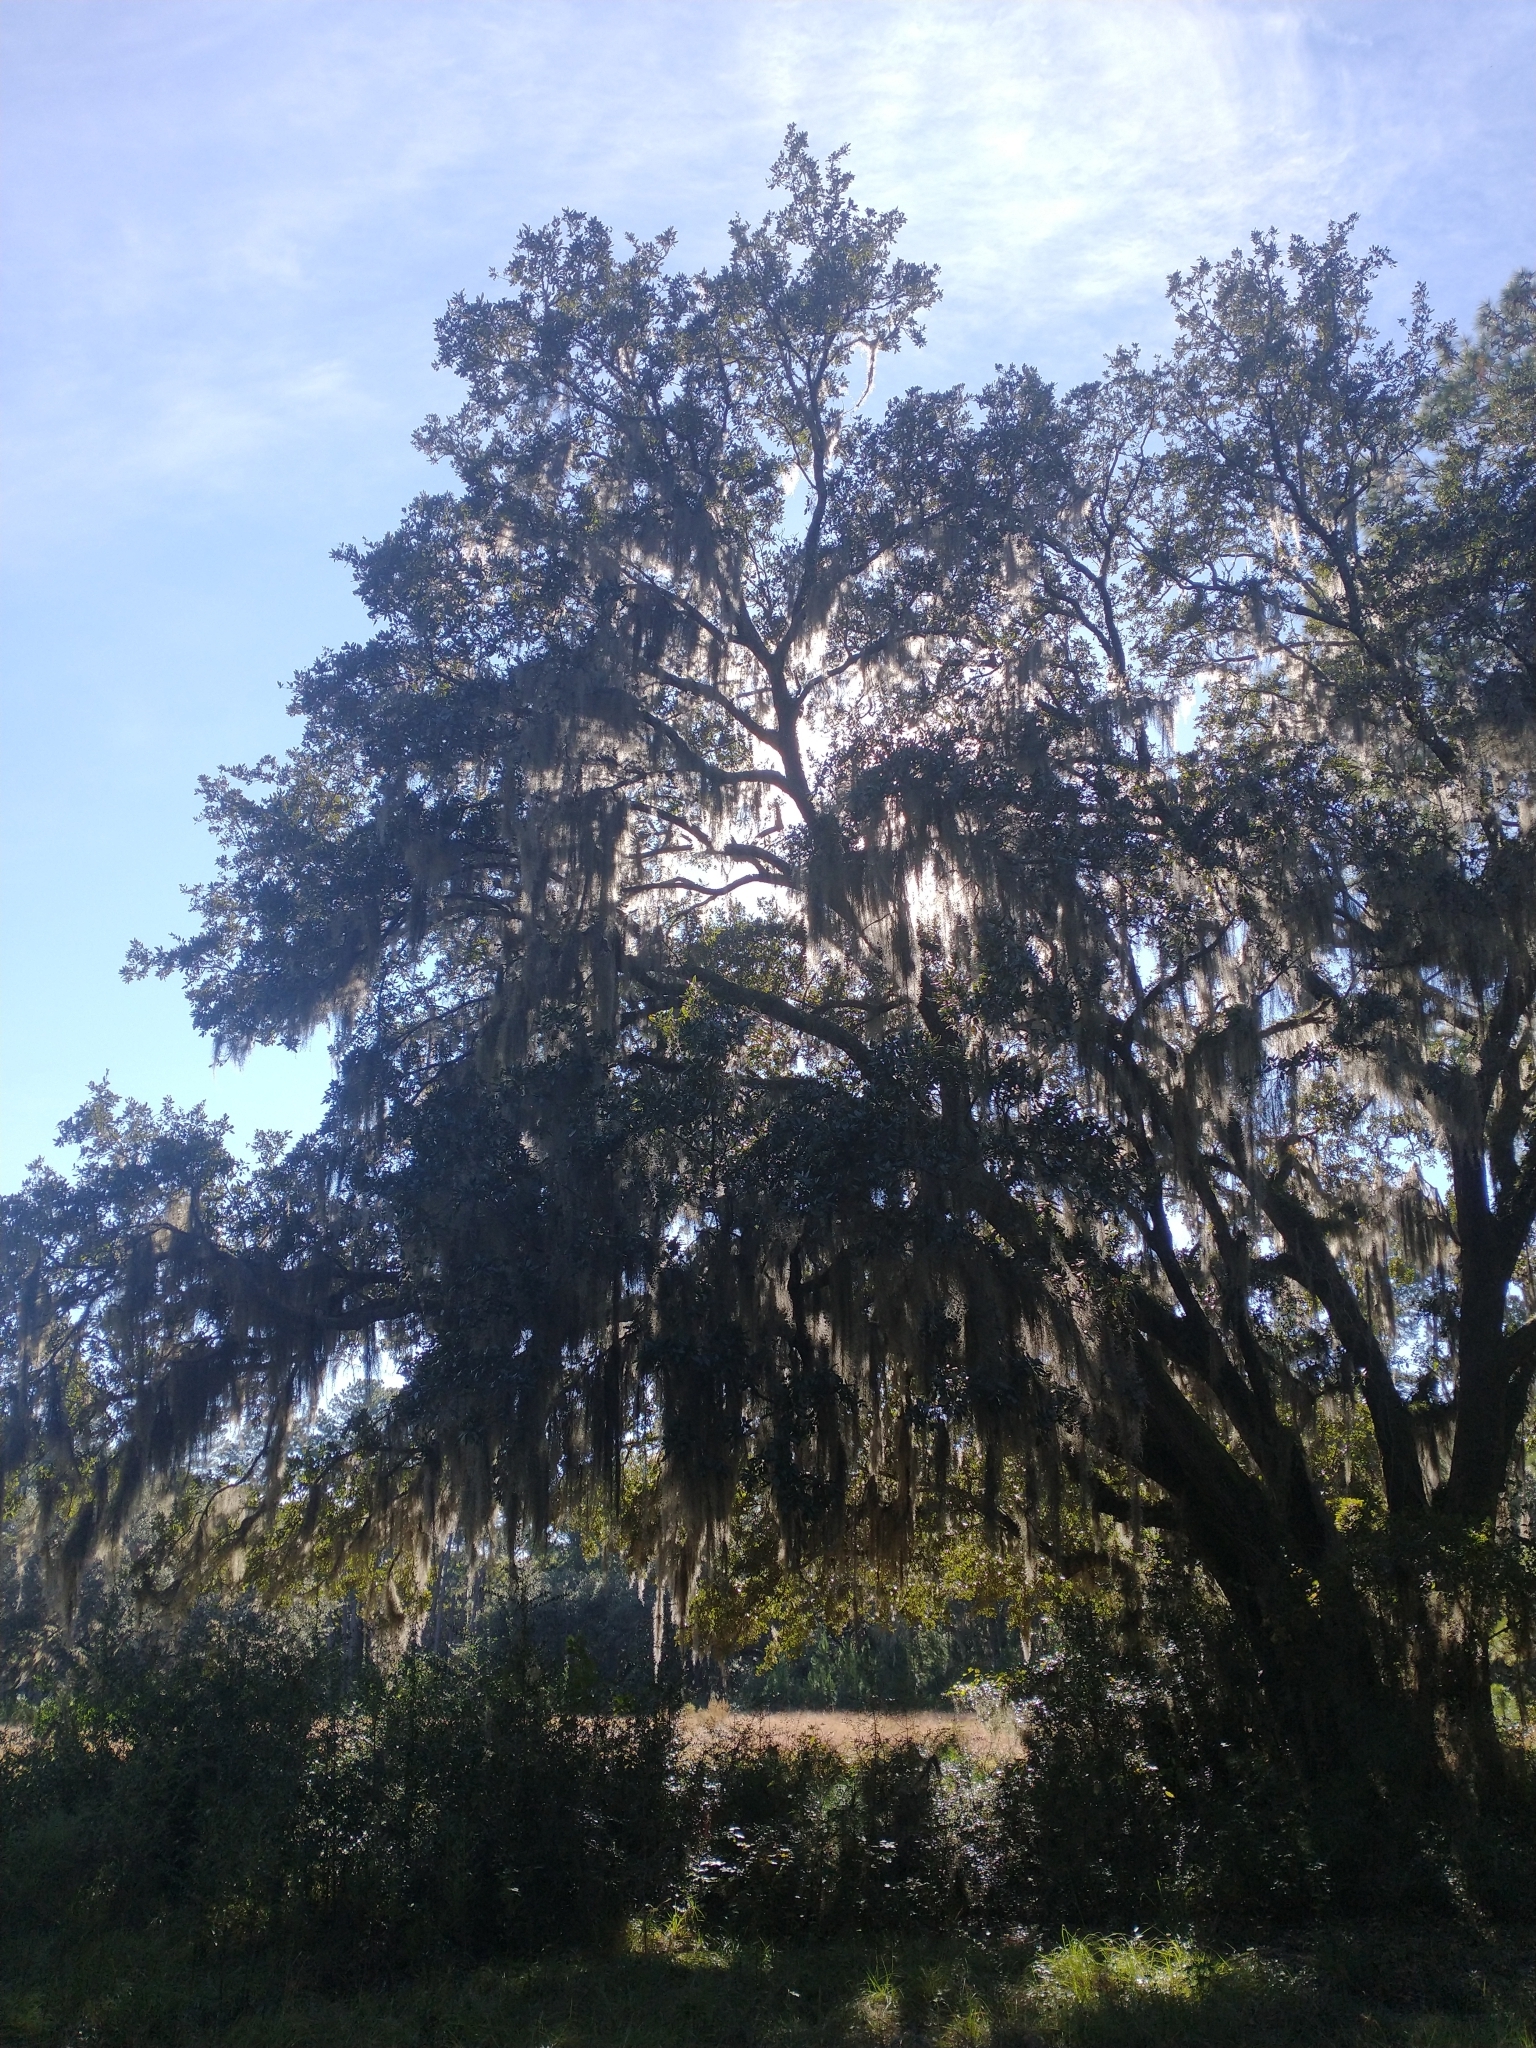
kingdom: Plantae
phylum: Tracheophyta
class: Liliopsida
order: Poales
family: Bromeliaceae
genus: Tillandsia
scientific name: Tillandsia usneoides
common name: Spanish moss
